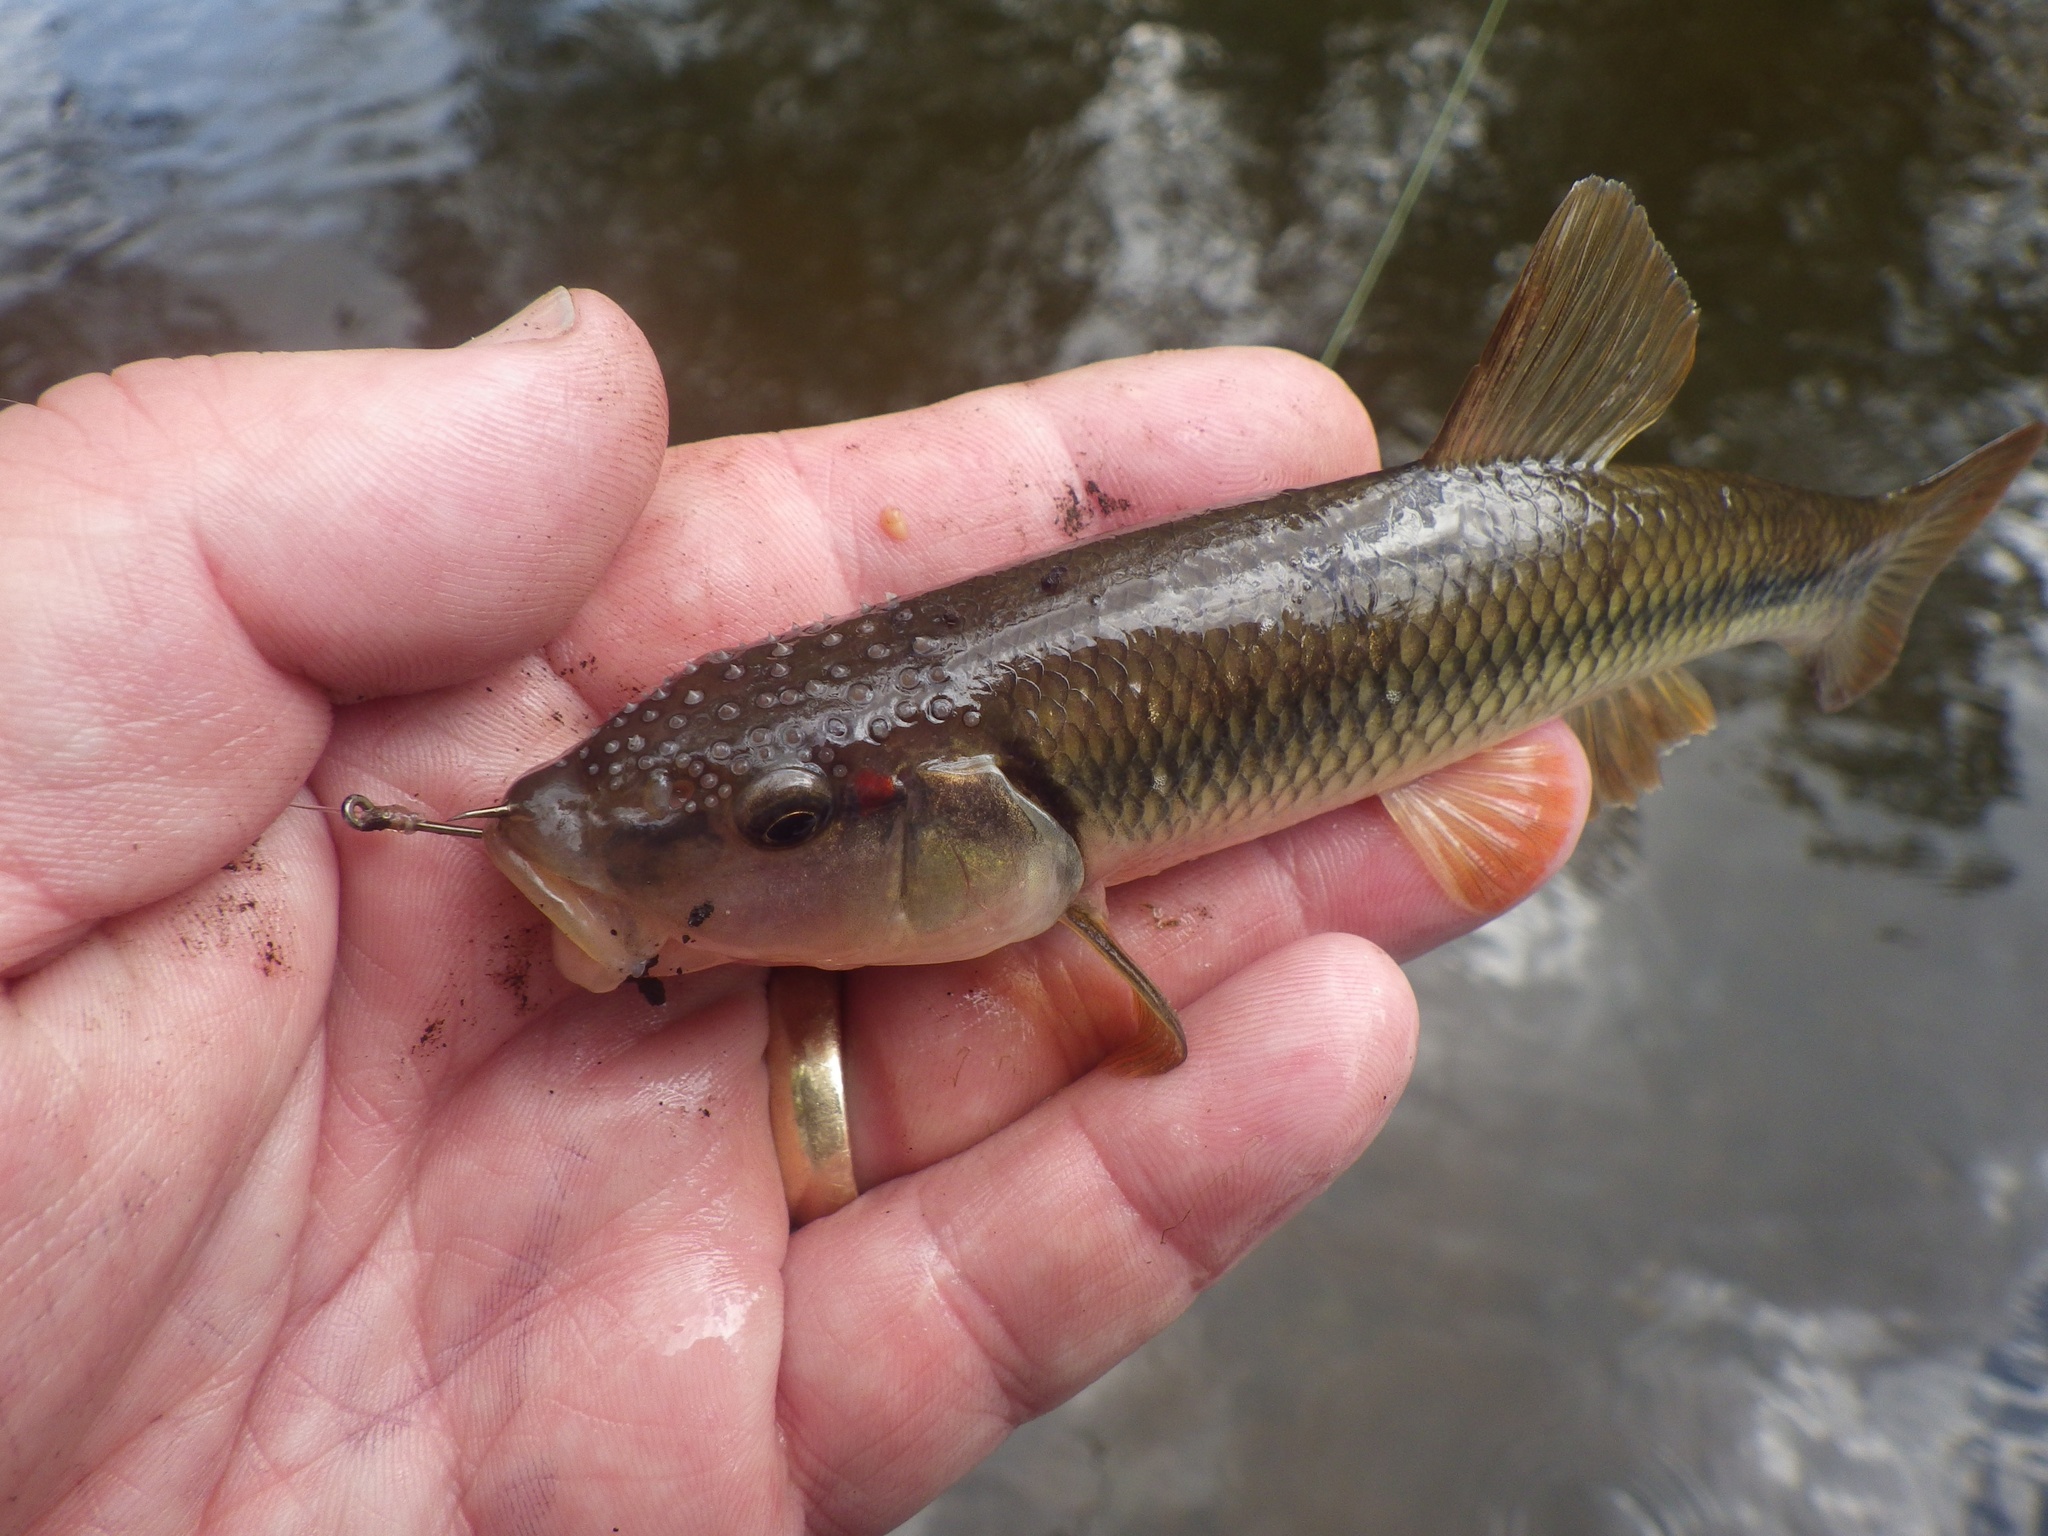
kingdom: Animalia
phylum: Chordata
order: Cypriniformes
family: Cyprinidae
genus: Nocomis
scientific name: Nocomis biguttatus
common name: Hornyhead chub
